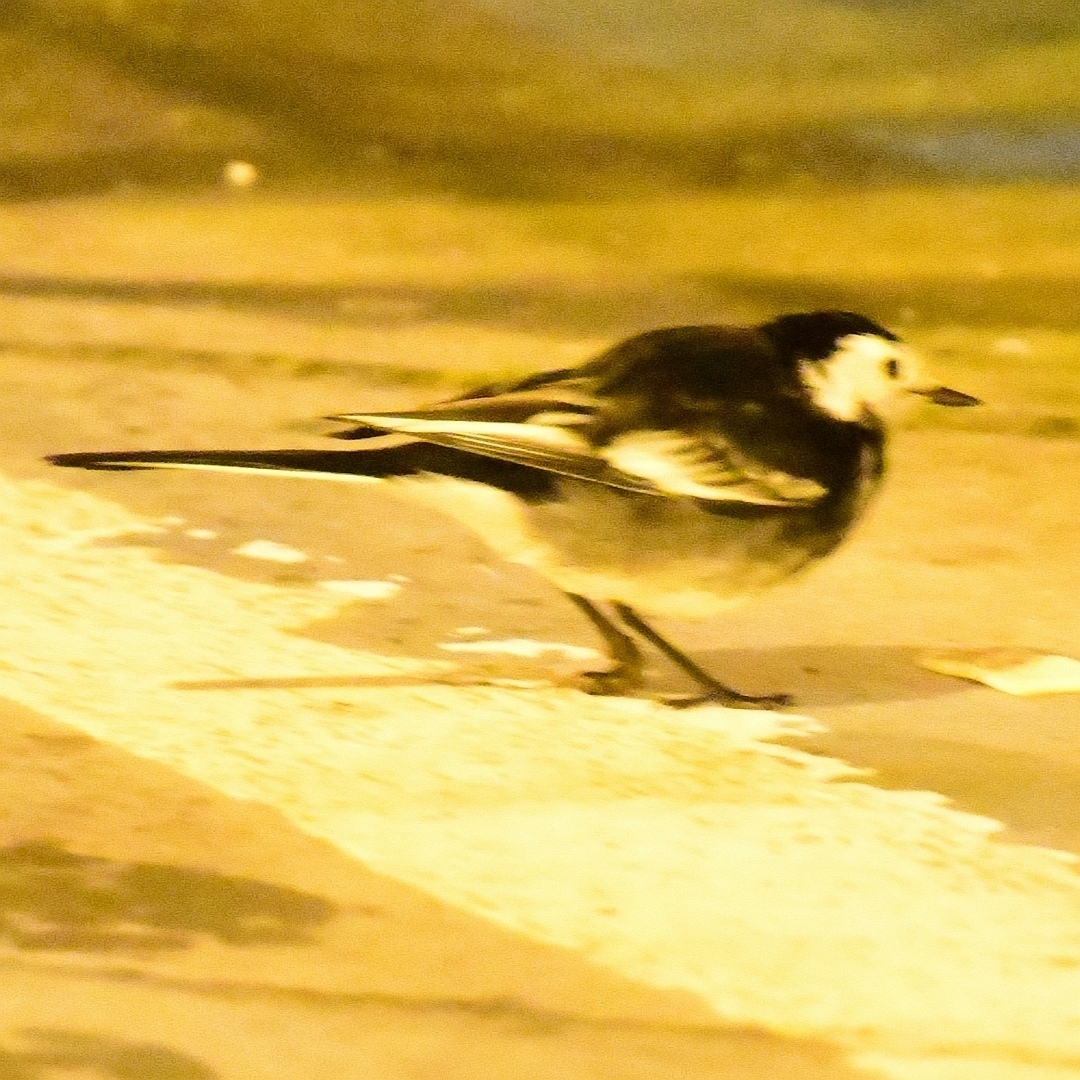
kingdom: Animalia
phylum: Chordata
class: Aves
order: Passeriformes
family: Motacillidae
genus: Motacilla
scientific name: Motacilla alba
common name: White wagtail
